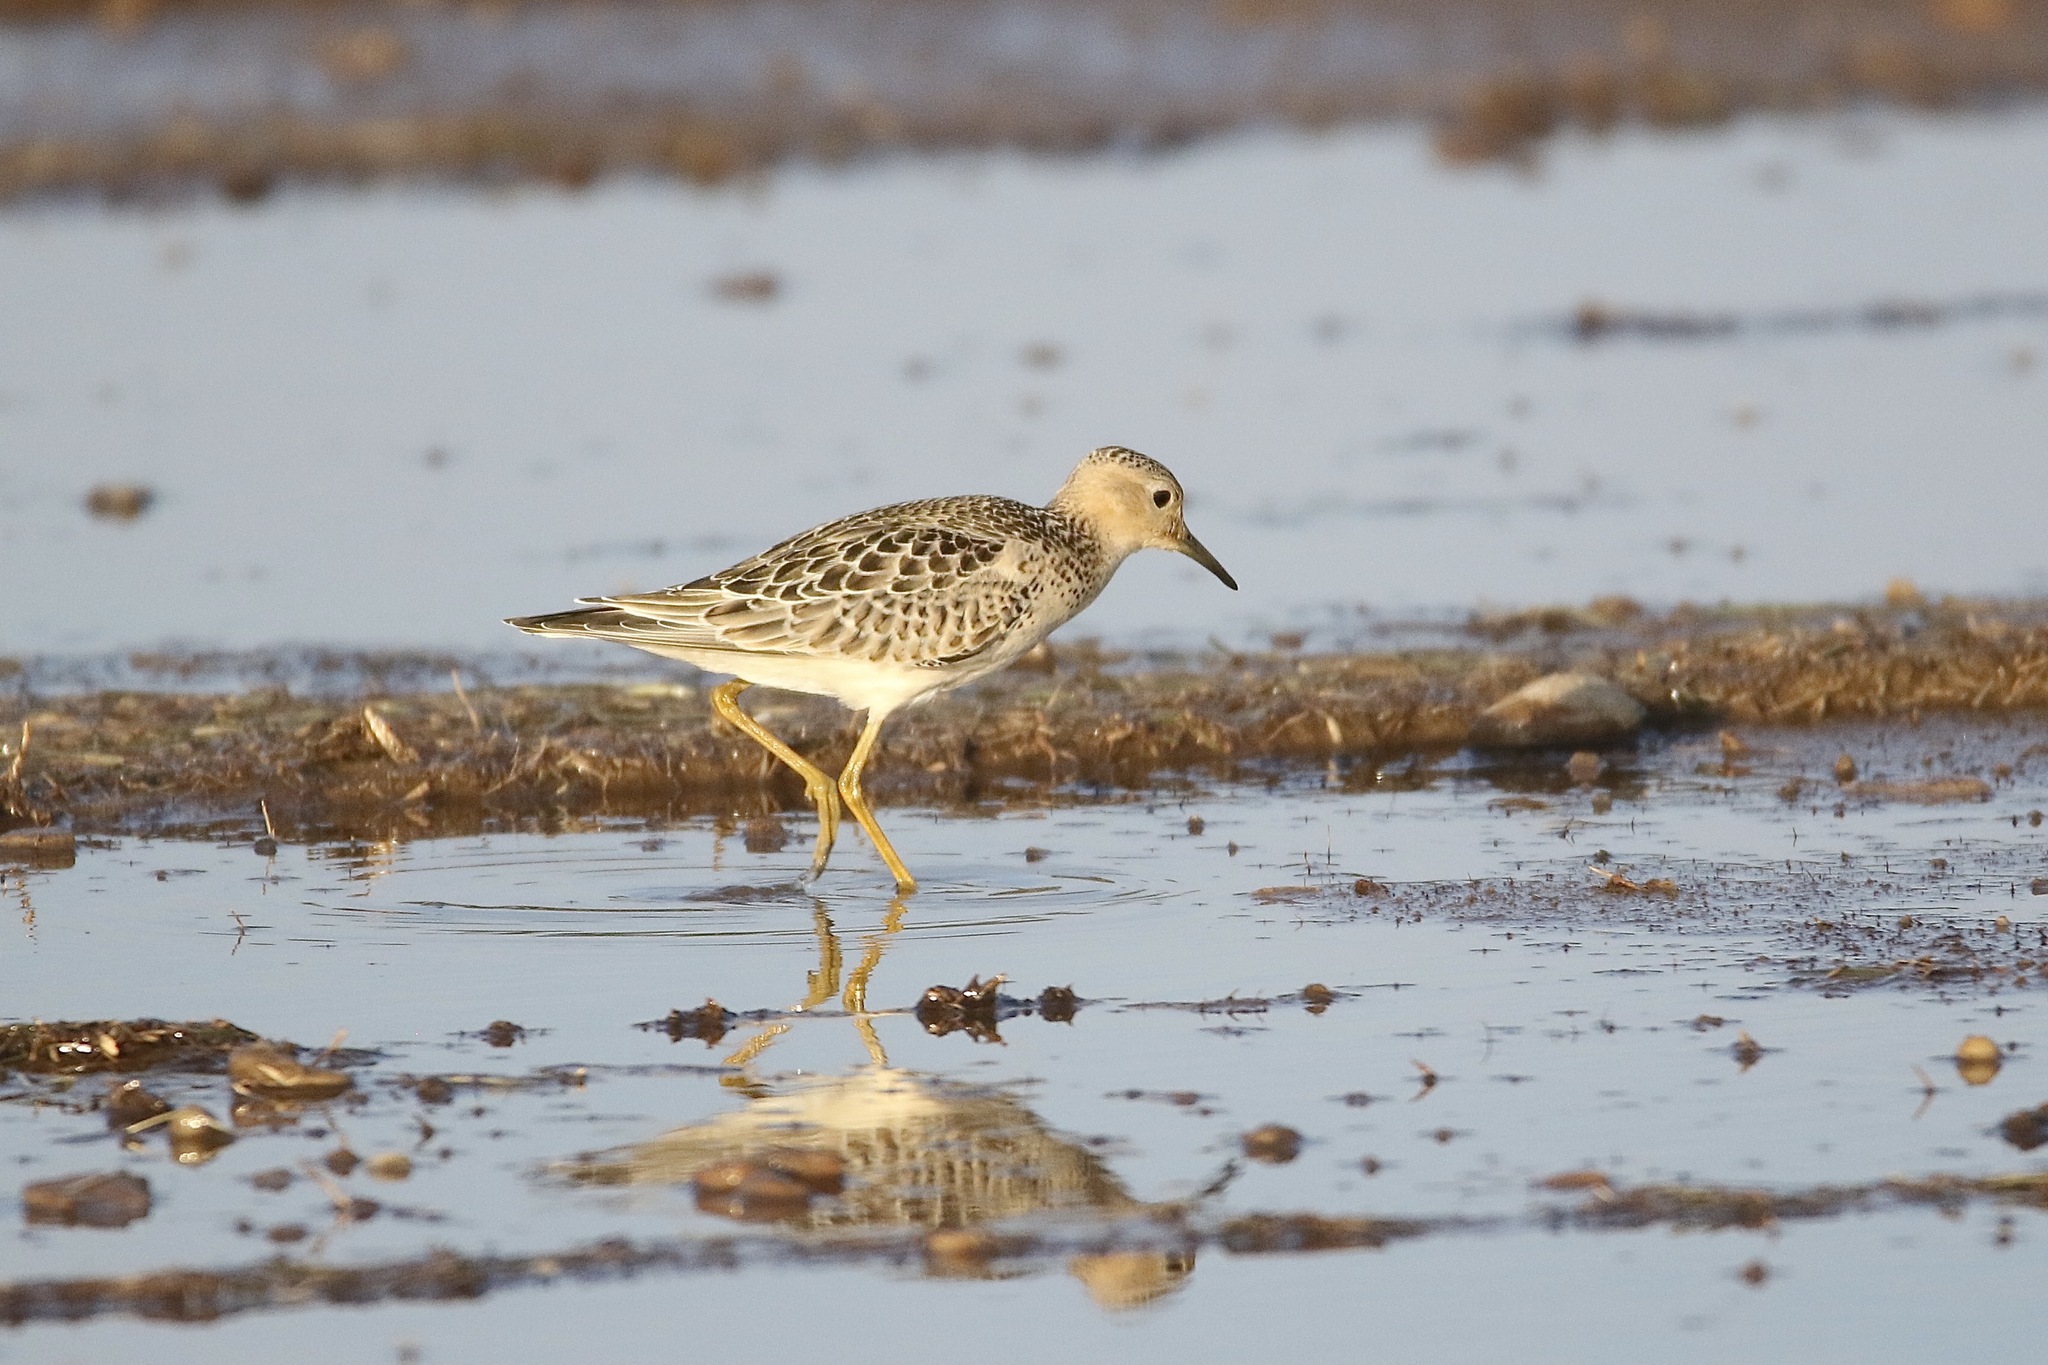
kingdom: Animalia
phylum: Chordata
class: Aves
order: Charadriiformes
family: Scolopacidae
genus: Calidris
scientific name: Calidris subruficollis
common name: Buff-breasted sandpiper
